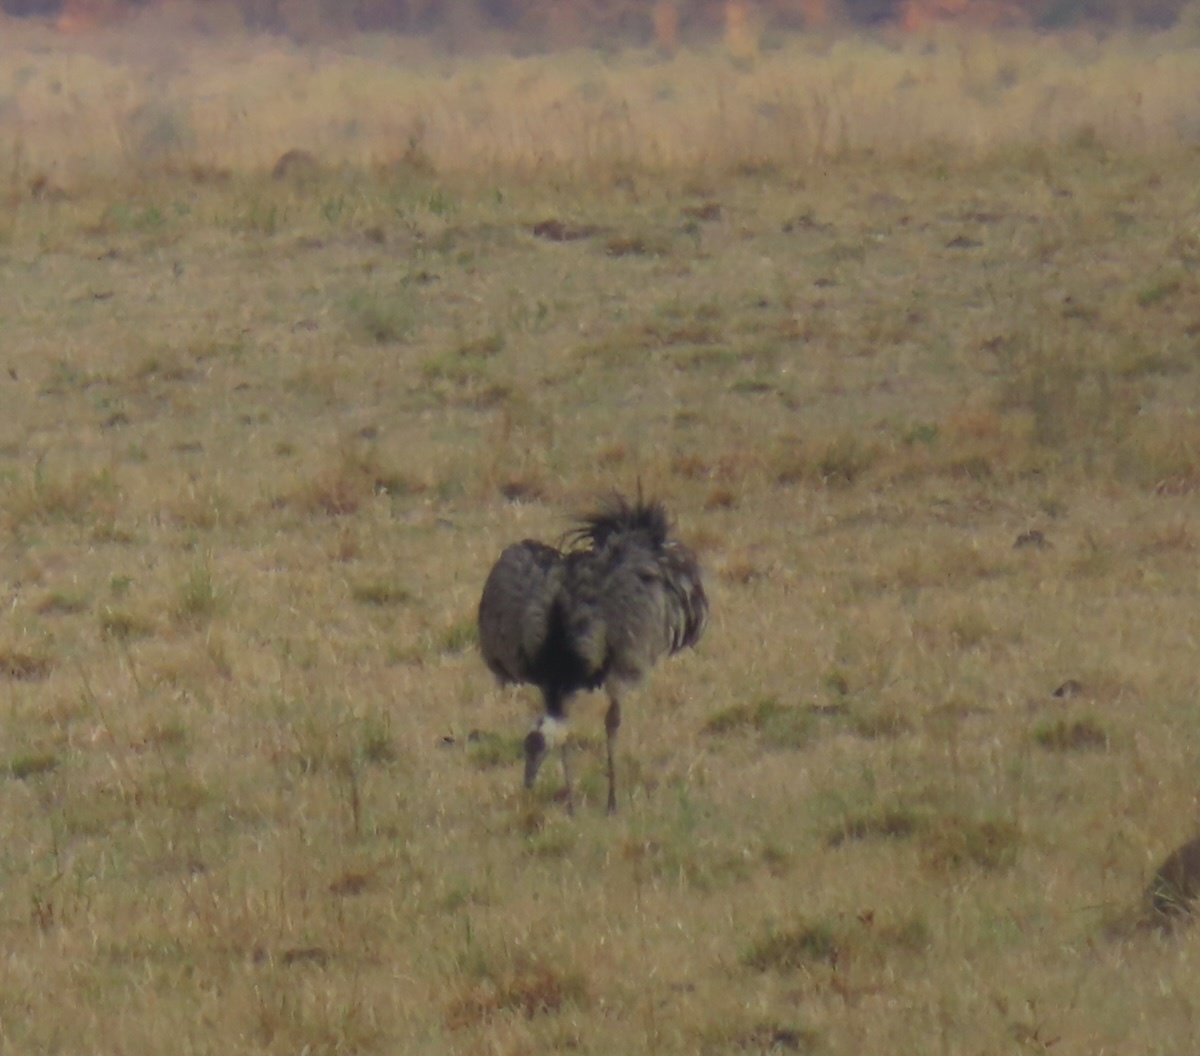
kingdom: Animalia
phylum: Chordata
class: Aves
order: Rheiformes
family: Rheidae
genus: Rhea
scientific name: Rhea americana
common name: Greater rhea
